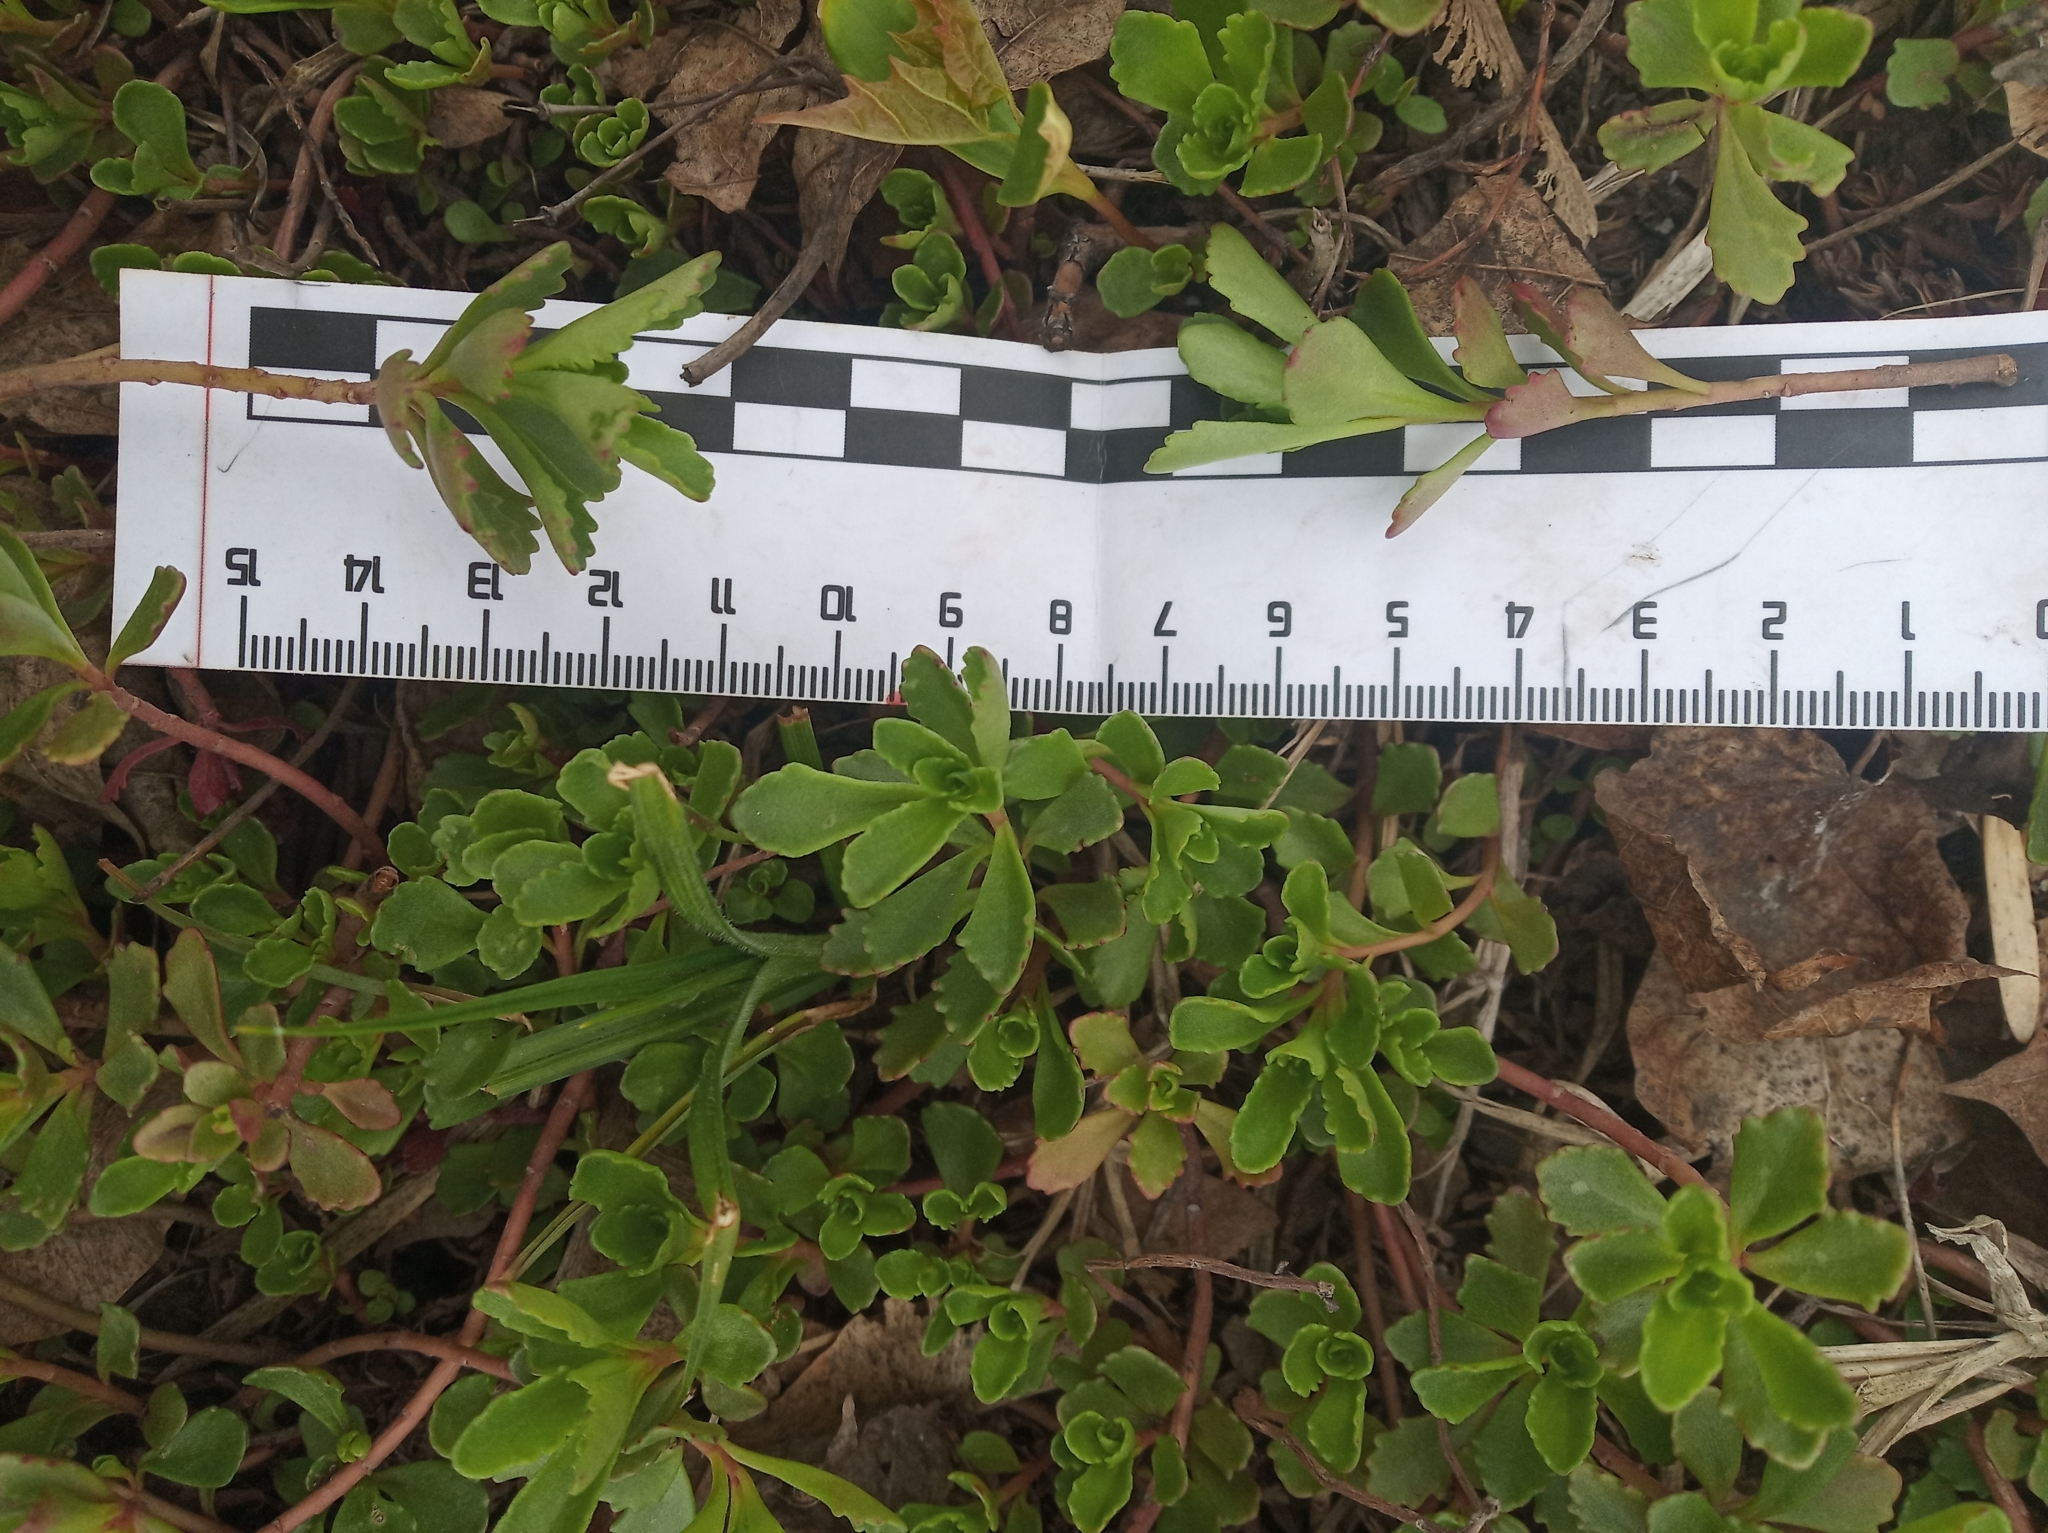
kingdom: Plantae
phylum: Tracheophyta
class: Magnoliopsida
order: Saxifragales
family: Crassulaceae
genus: Phedimus
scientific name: Phedimus hybridus
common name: Hybrid stonecrop
